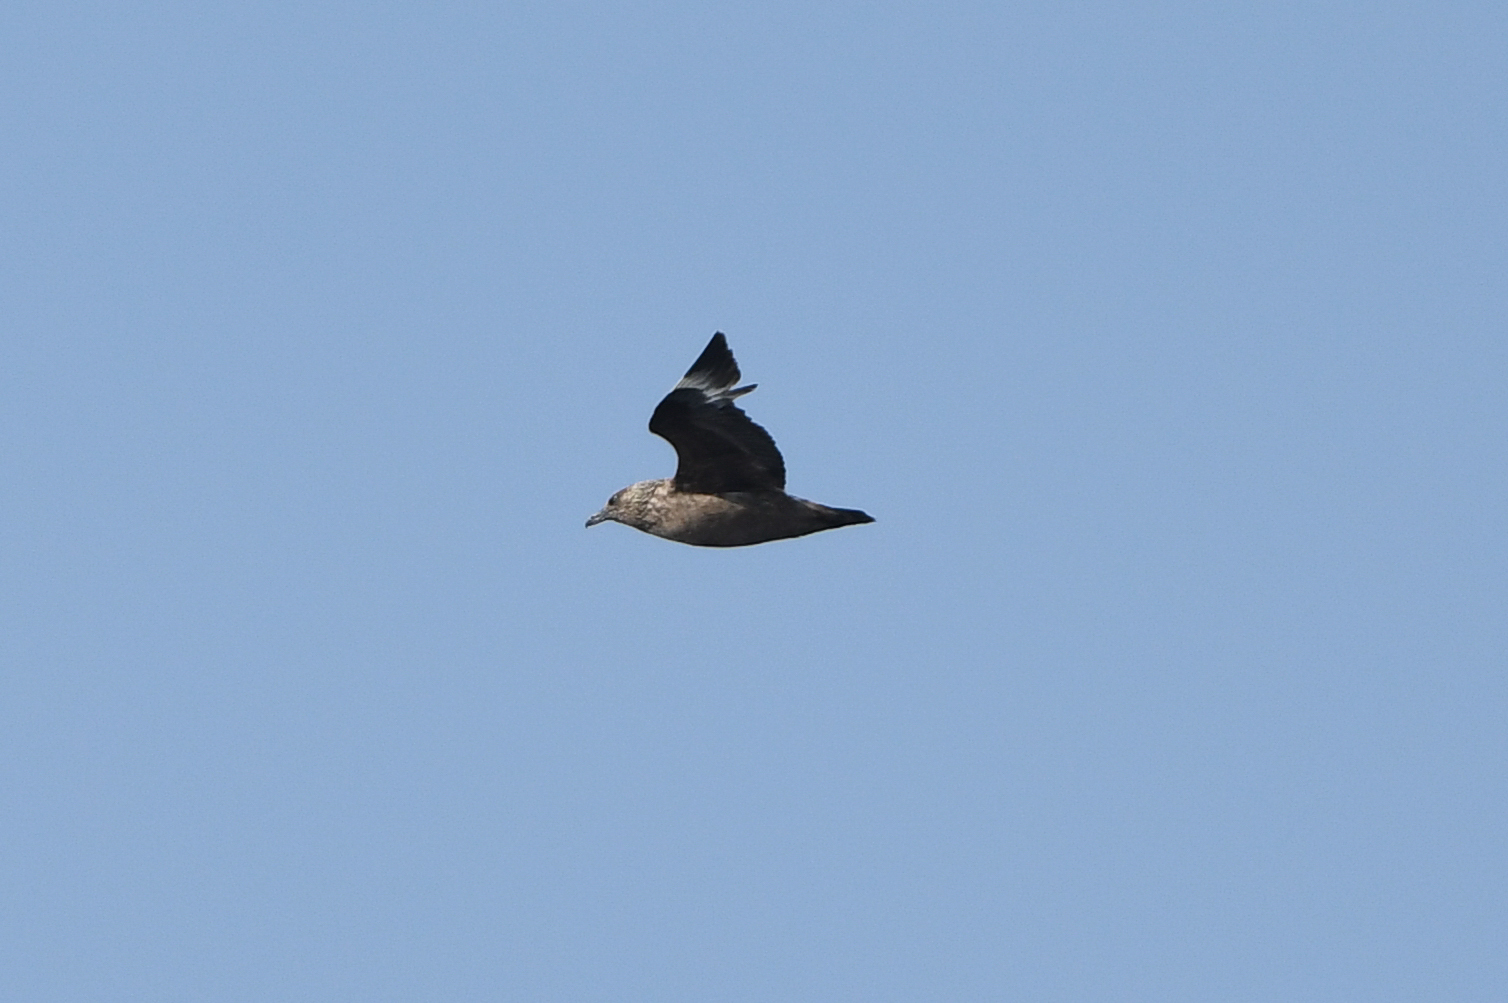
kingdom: Animalia
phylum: Chordata
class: Aves
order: Charadriiformes
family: Stercorariidae
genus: Stercorarius
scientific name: Stercorarius skua
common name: Great skua
